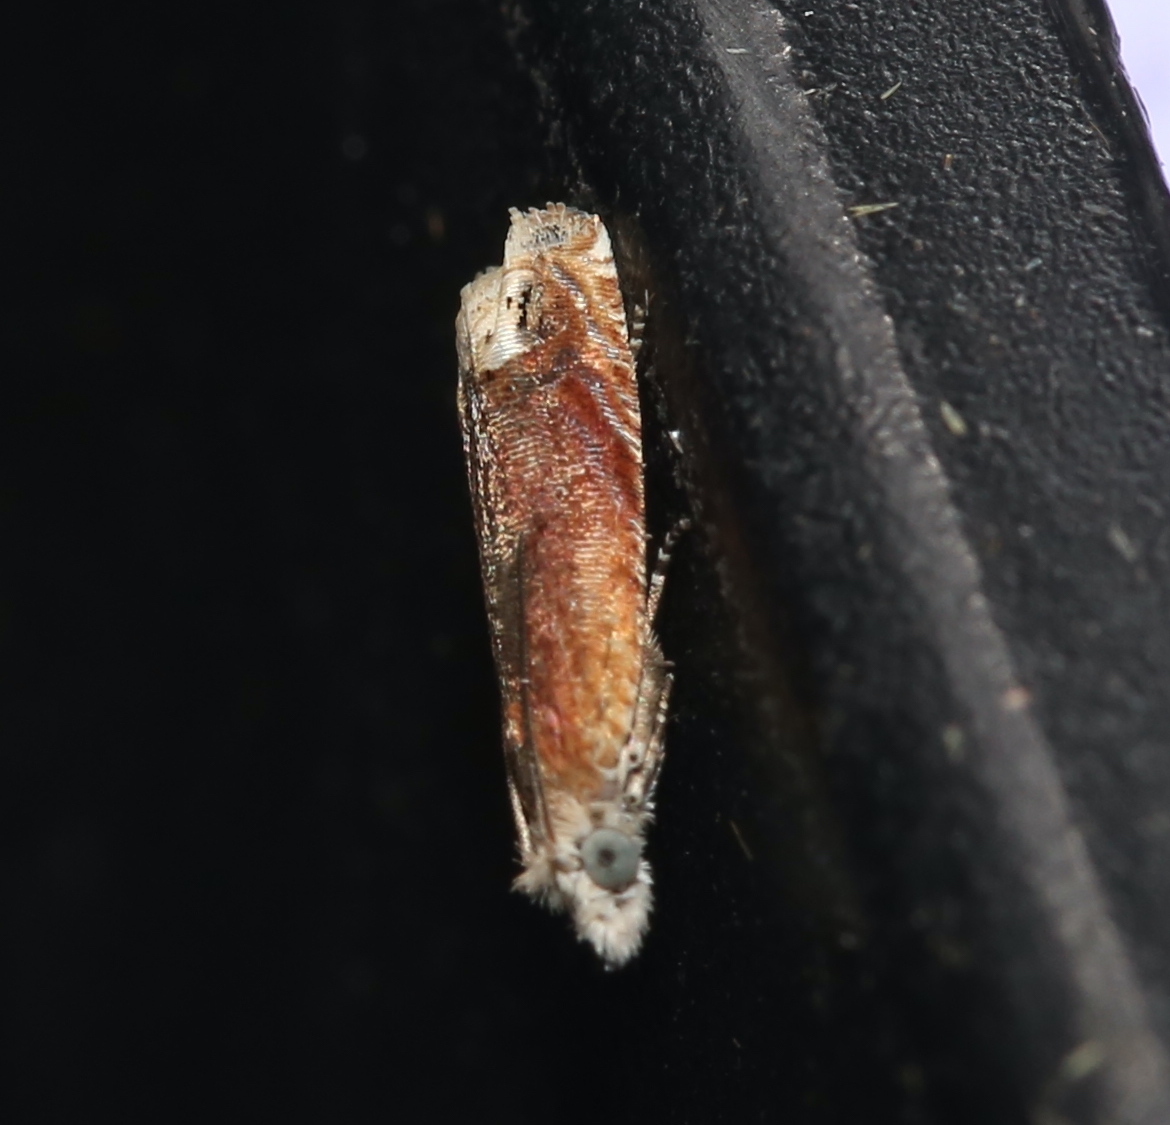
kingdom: Animalia
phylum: Arthropoda
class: Insecta
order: Lepidoptera
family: Tortricidae
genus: Eucosma
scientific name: Eucosma raracana
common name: Reddish eucosma moth
